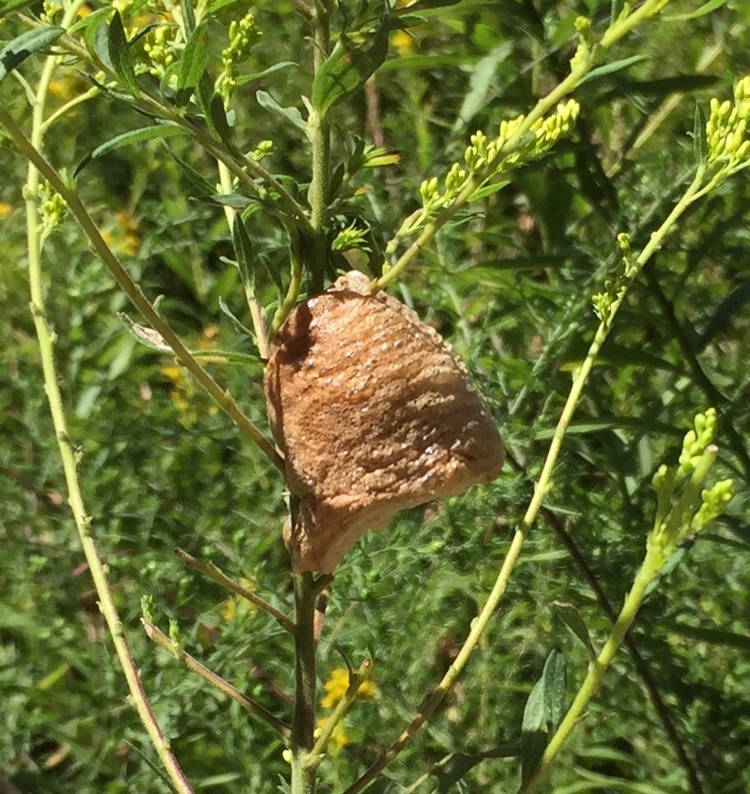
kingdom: Animalia
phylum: Arthropoda
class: Insecta
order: Mantodea
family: Mantidae
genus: Tenodera
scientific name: Tenodera sinensis
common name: Chinese mantis
